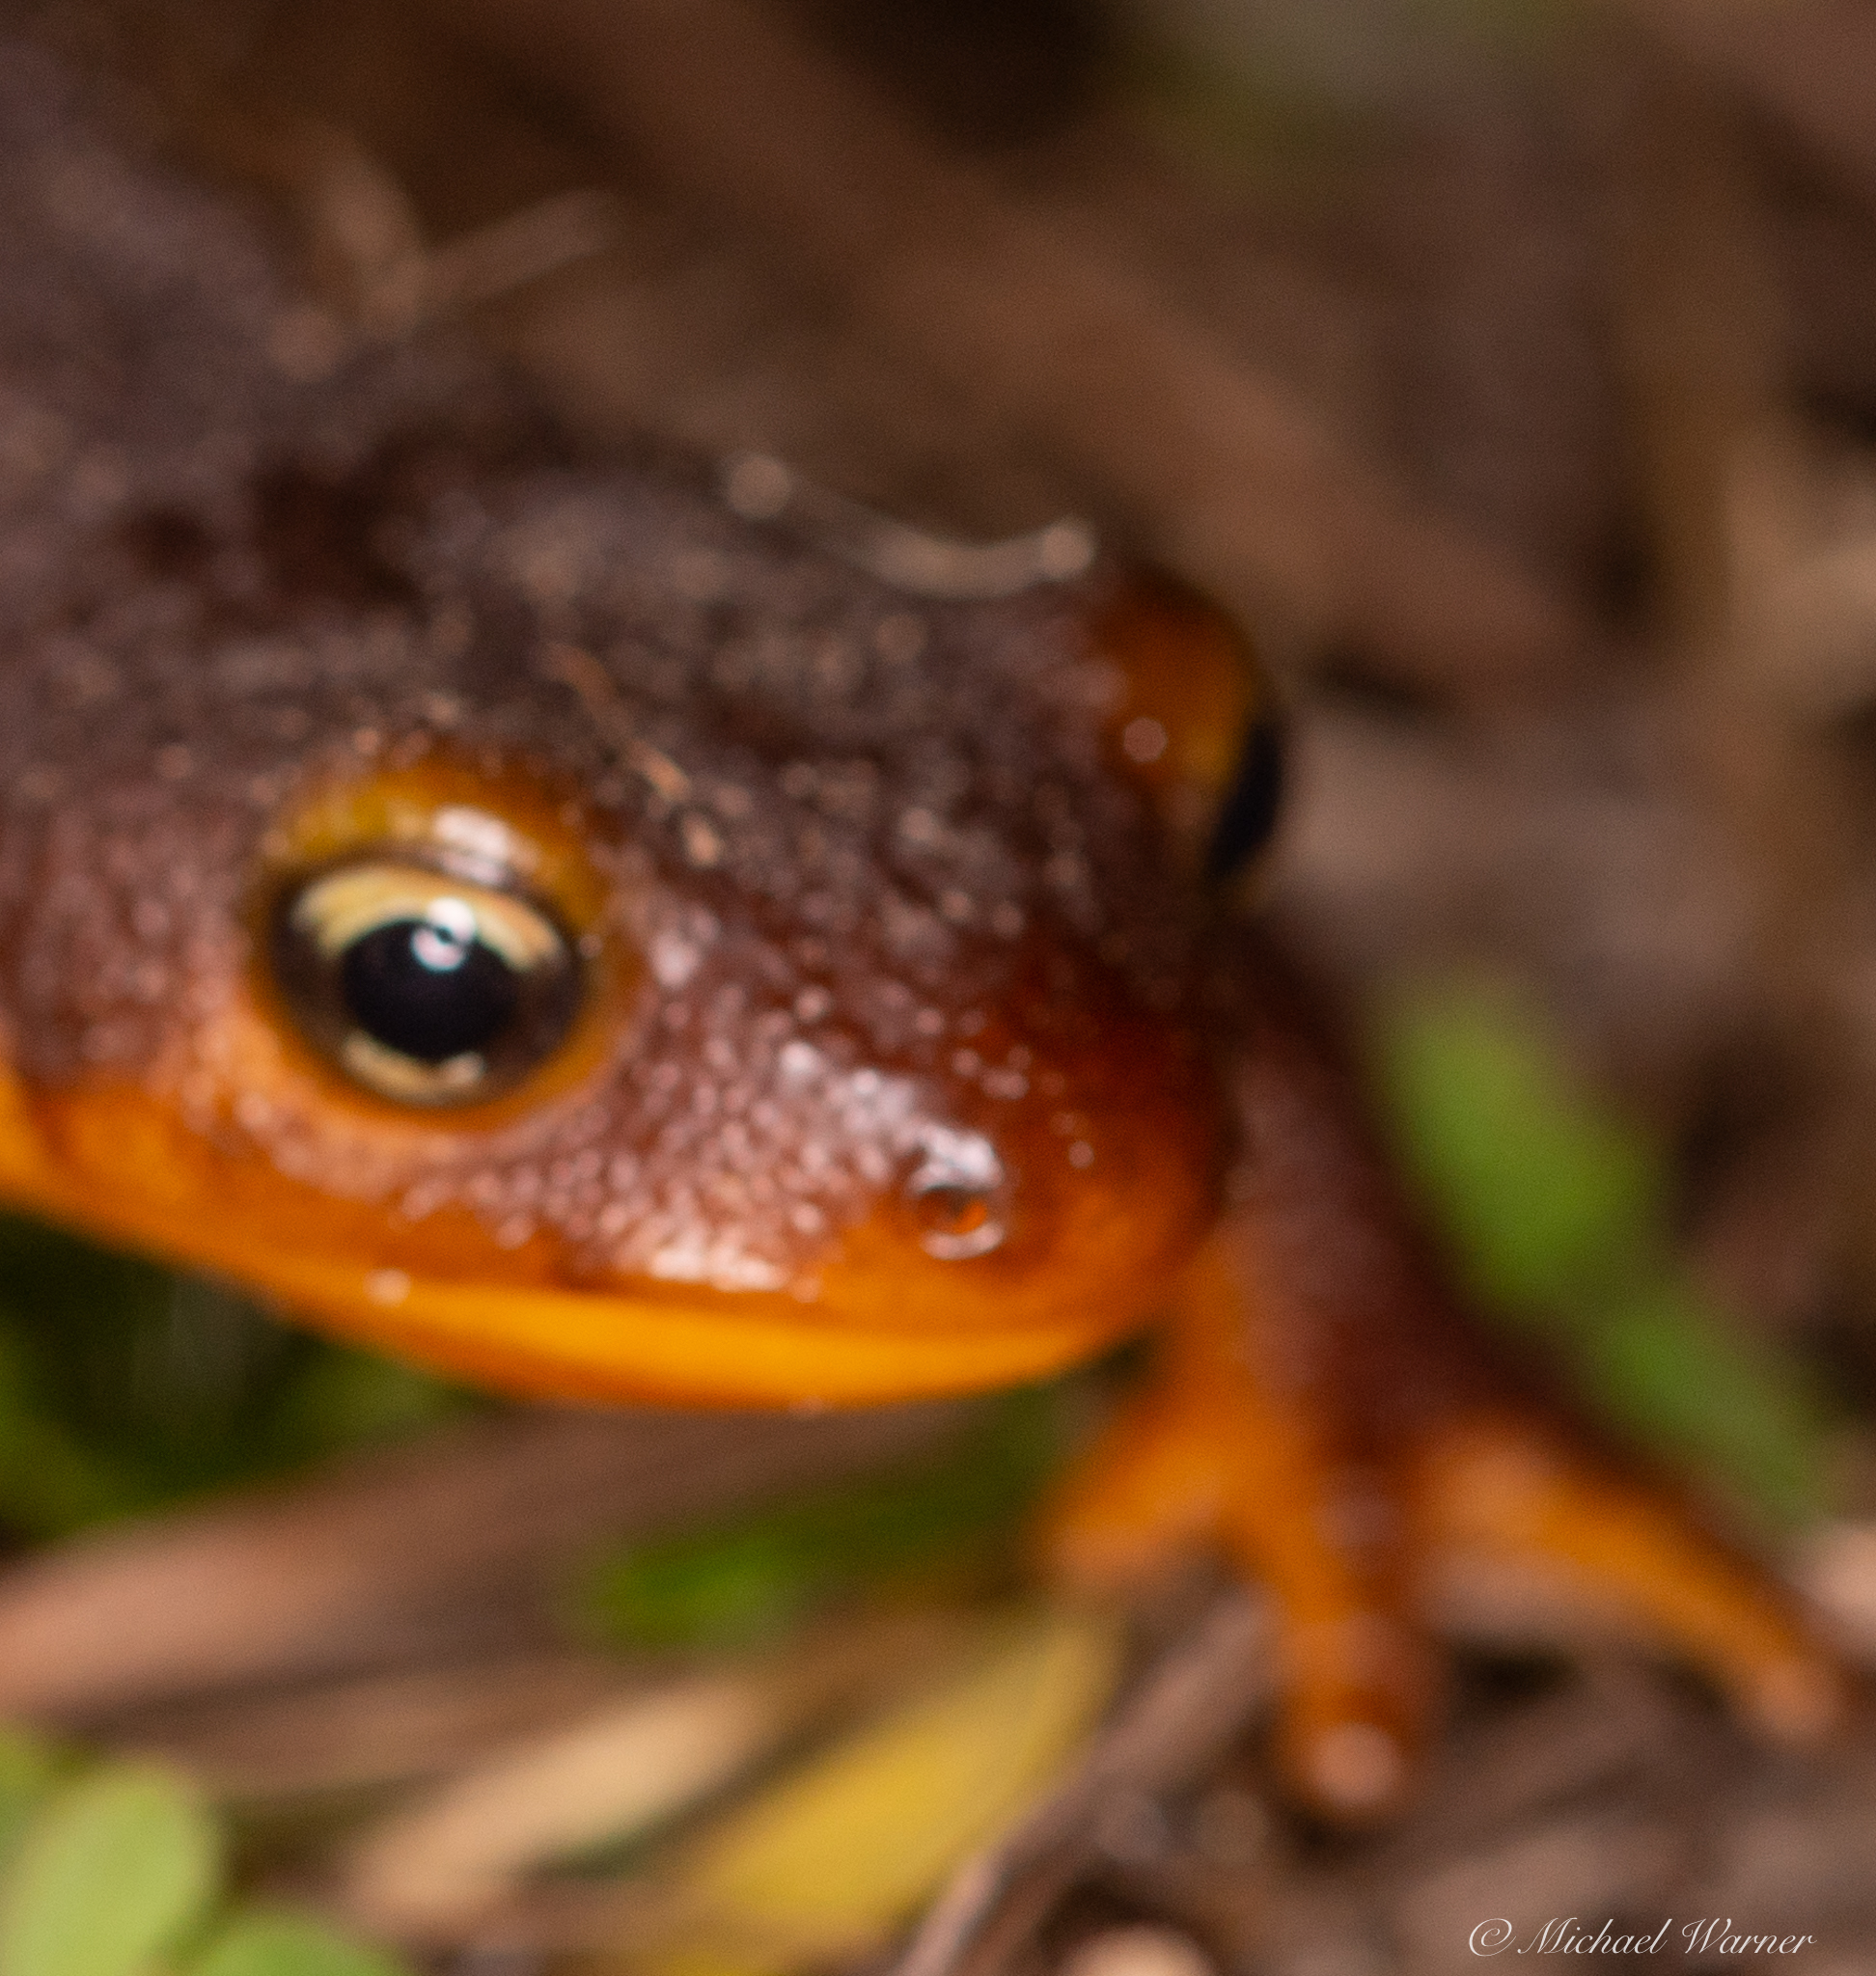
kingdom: Animalia
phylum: Chordata
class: Amphibia
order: Caudata
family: Salamandridae
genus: Taricha
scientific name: Taricha torosa
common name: California newt
